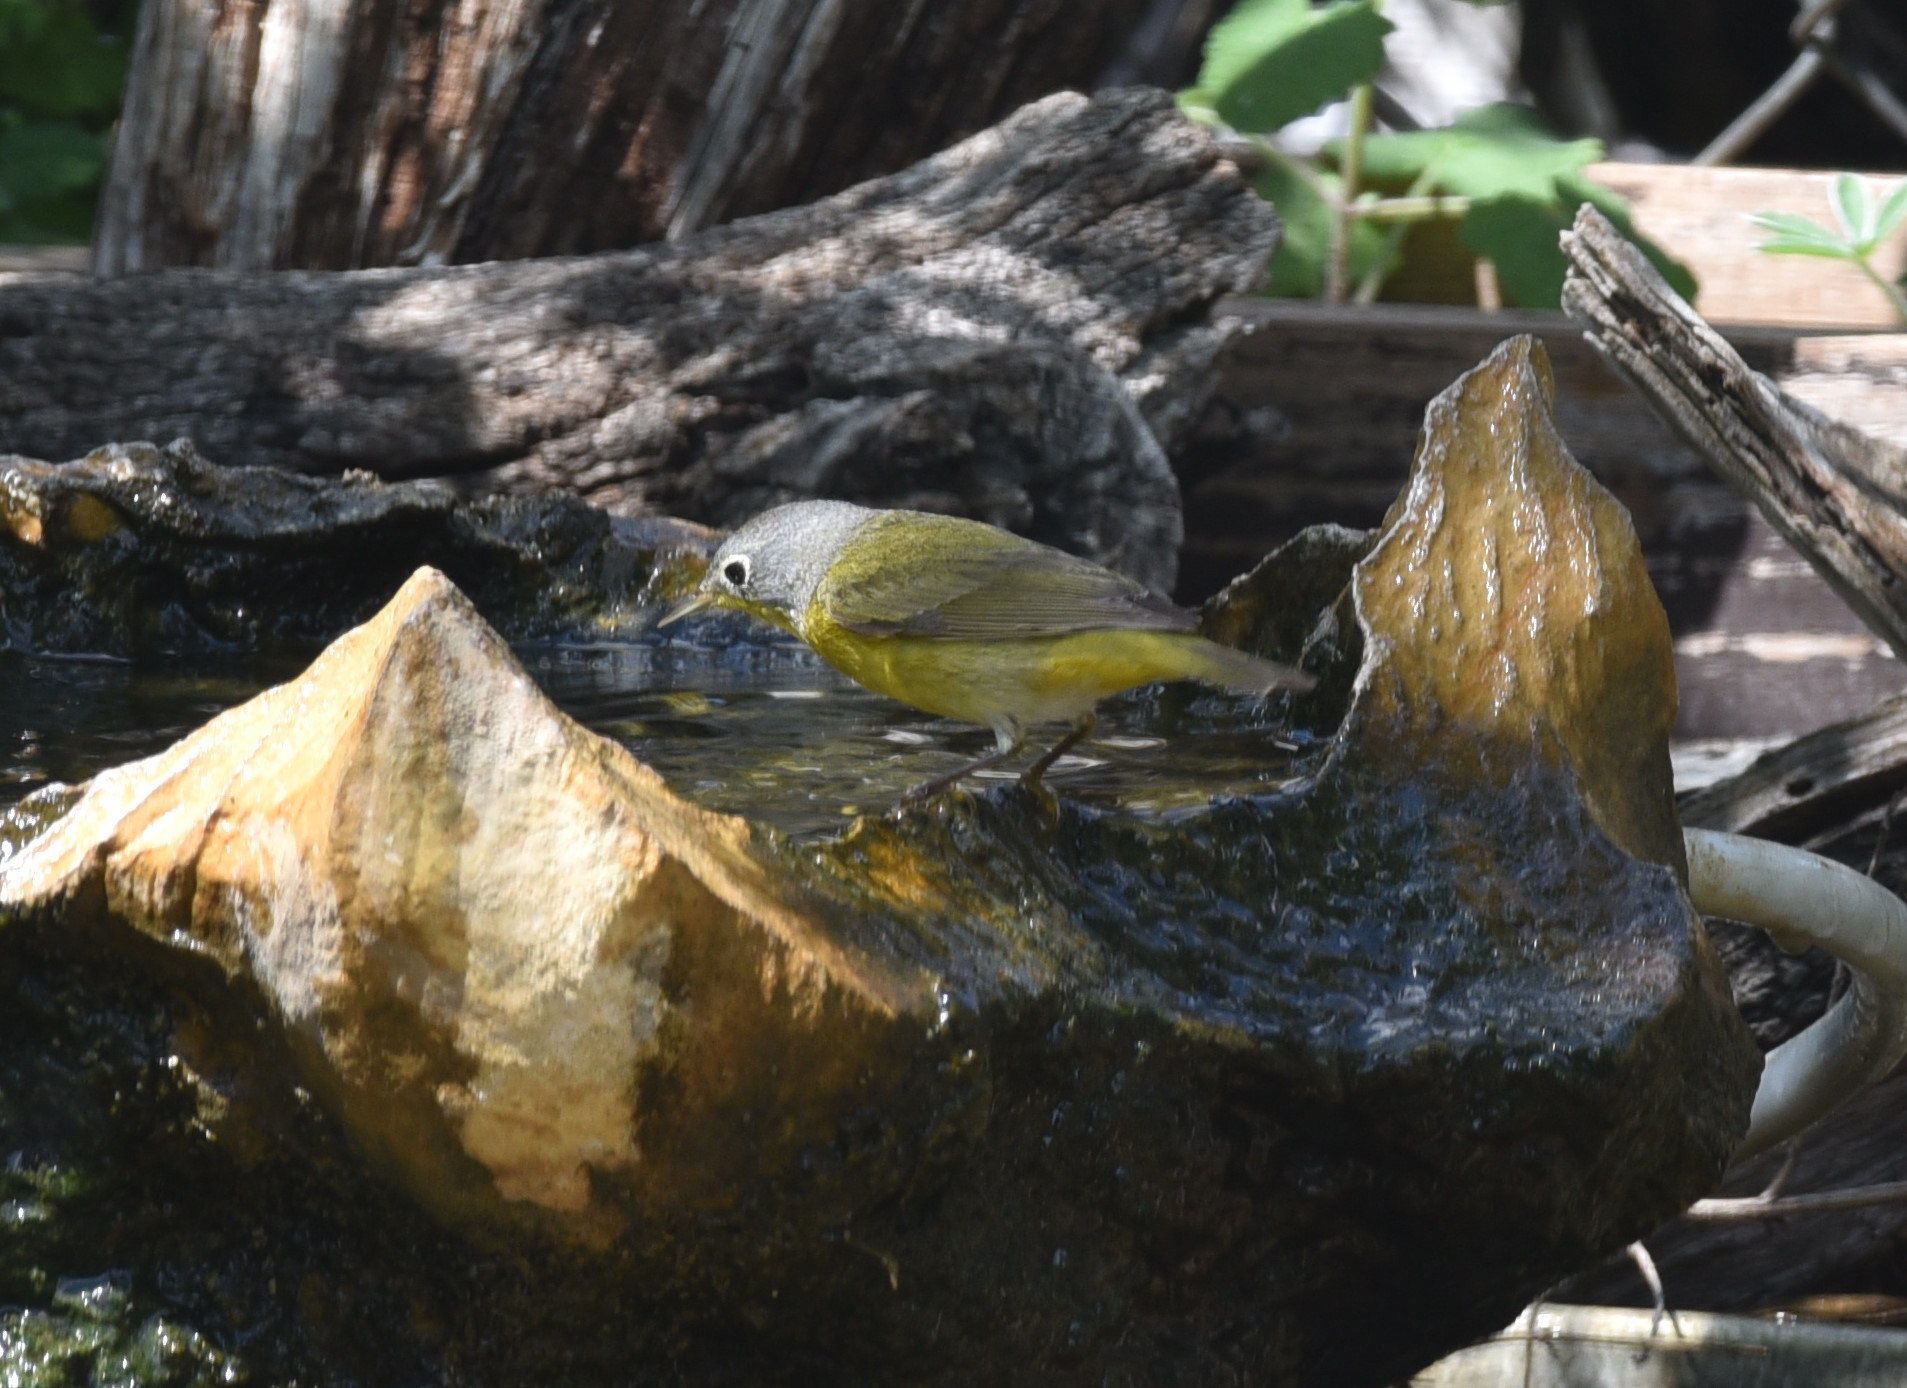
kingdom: Animalia
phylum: Chordata
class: Aves
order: Passeriformes
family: Parulidae
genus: Leiothlypis
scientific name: Leiothlypis ruficapilla
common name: Nashville warbler
